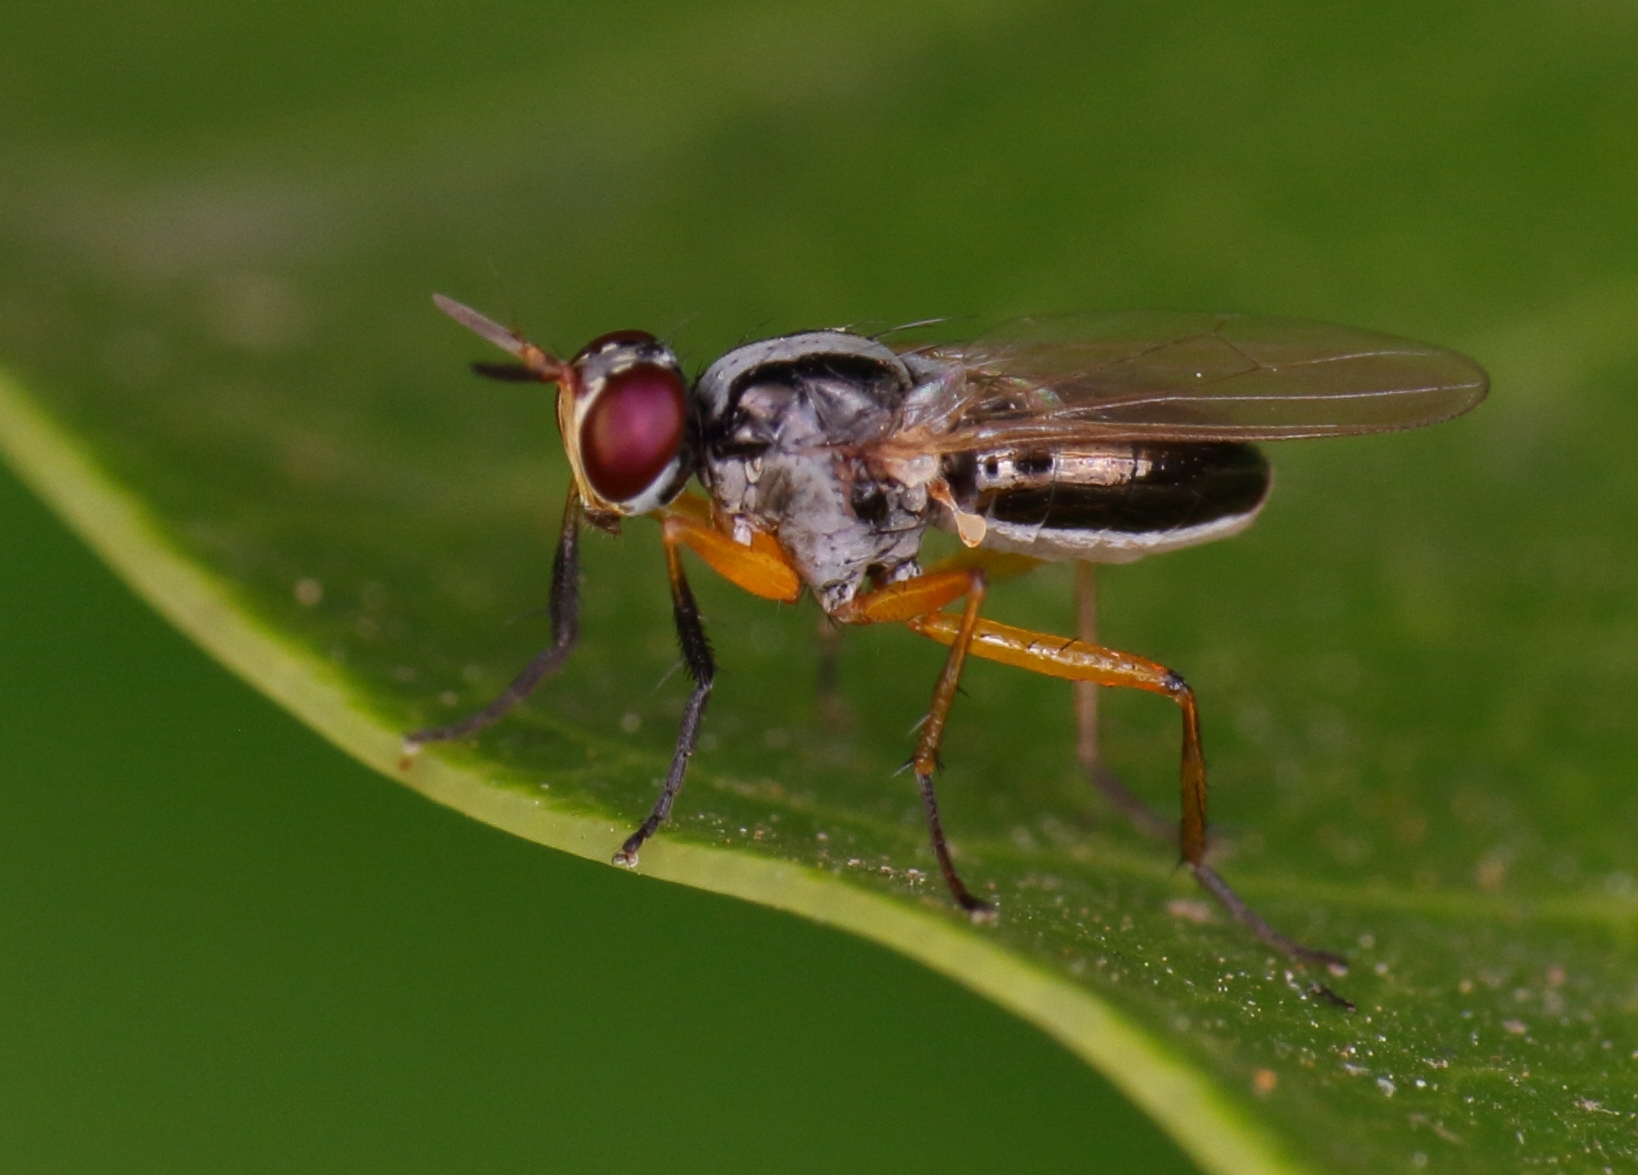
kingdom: Animalia
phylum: Arthropoda
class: Insecta
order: Diptera
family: Muscidae
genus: Anaphalantus
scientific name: Anaphalantus longicornis
